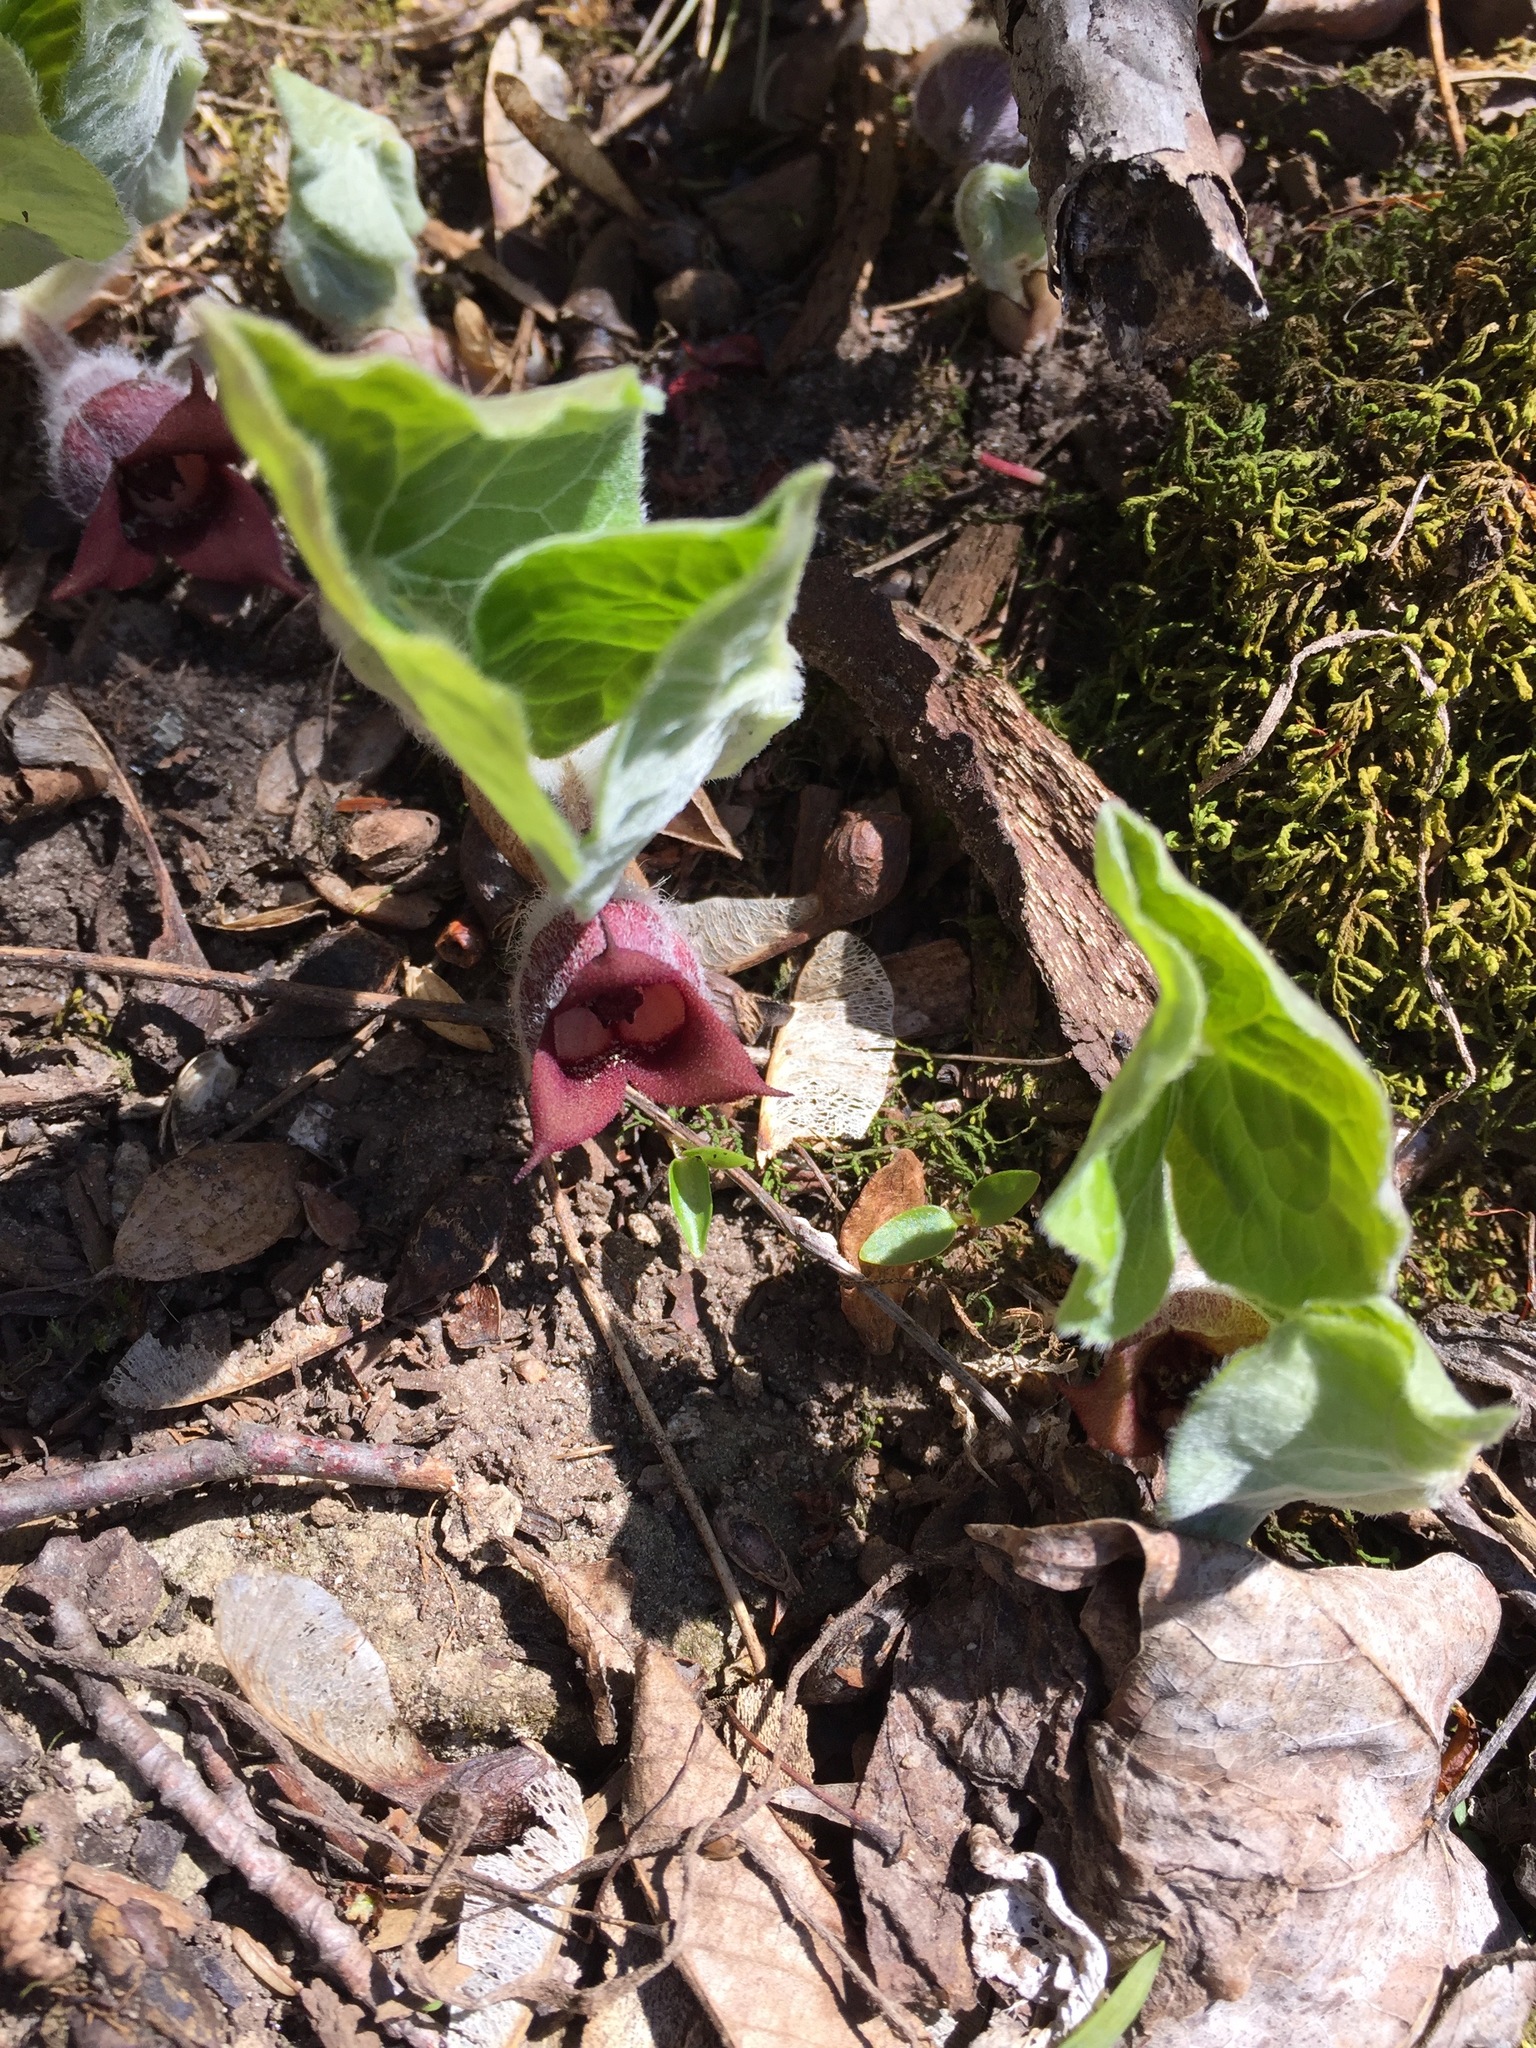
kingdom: Plantae
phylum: Tracheophyta
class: Magnoliopsida
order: Piperales
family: Aristolochiaceae
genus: Asarum
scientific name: Asarum canadense
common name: Wild ginger
